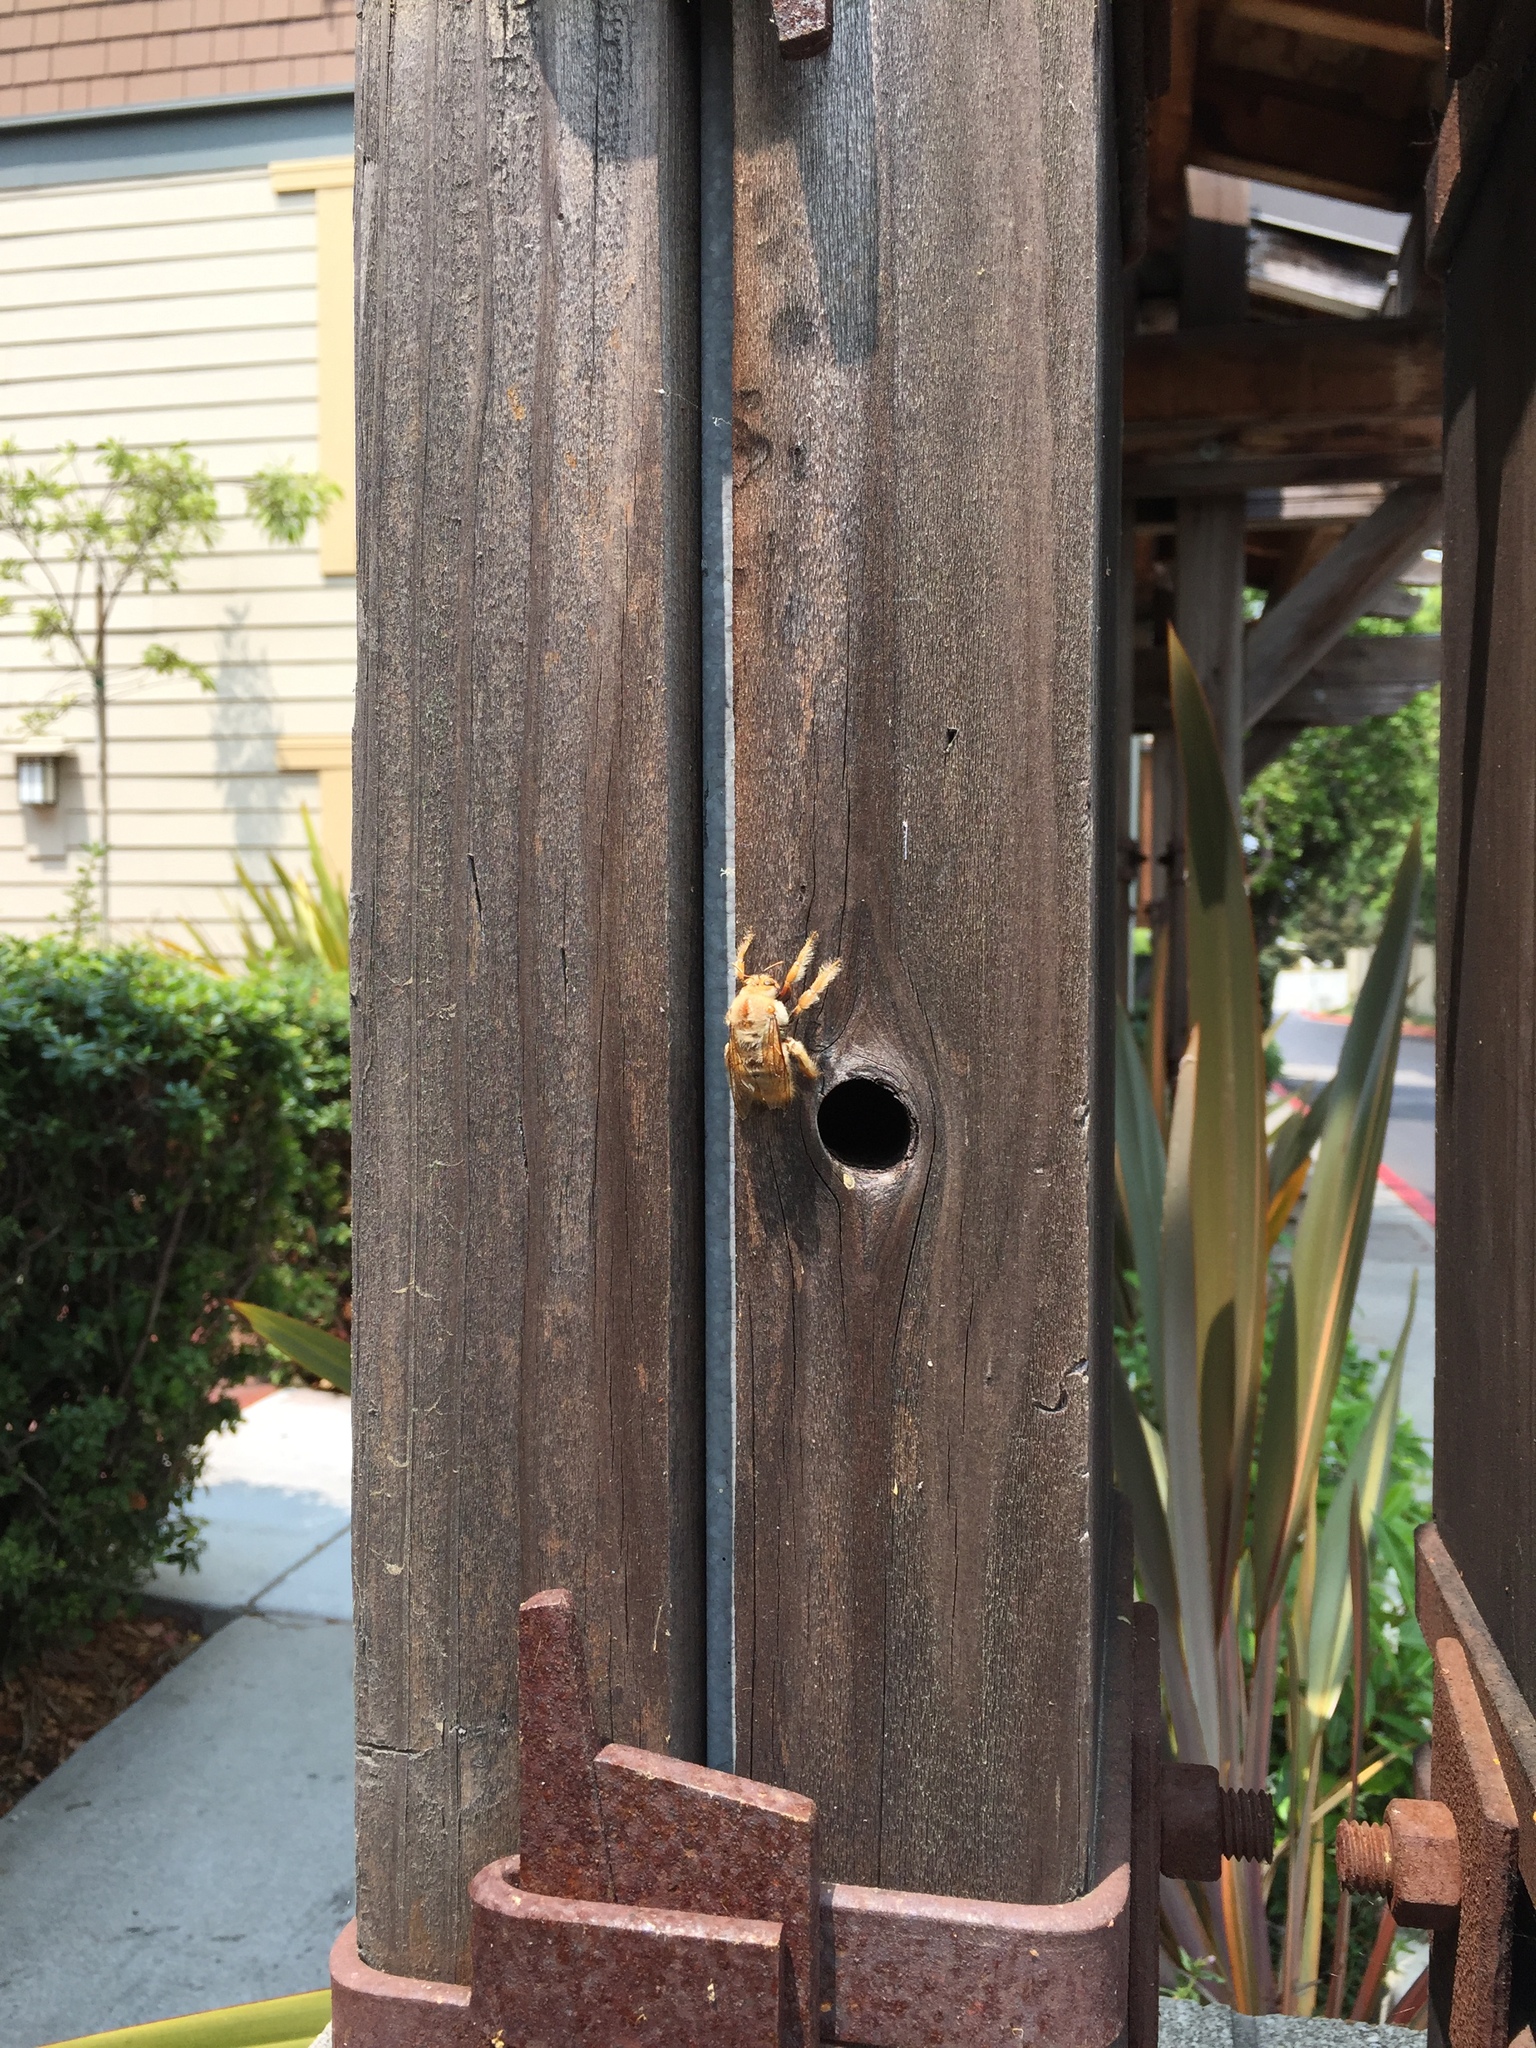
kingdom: Animalia
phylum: Arthropoda
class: Insecta
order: Hymenoptera
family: Apidae
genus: Xylocopa
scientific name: Xylocopa sonorina
